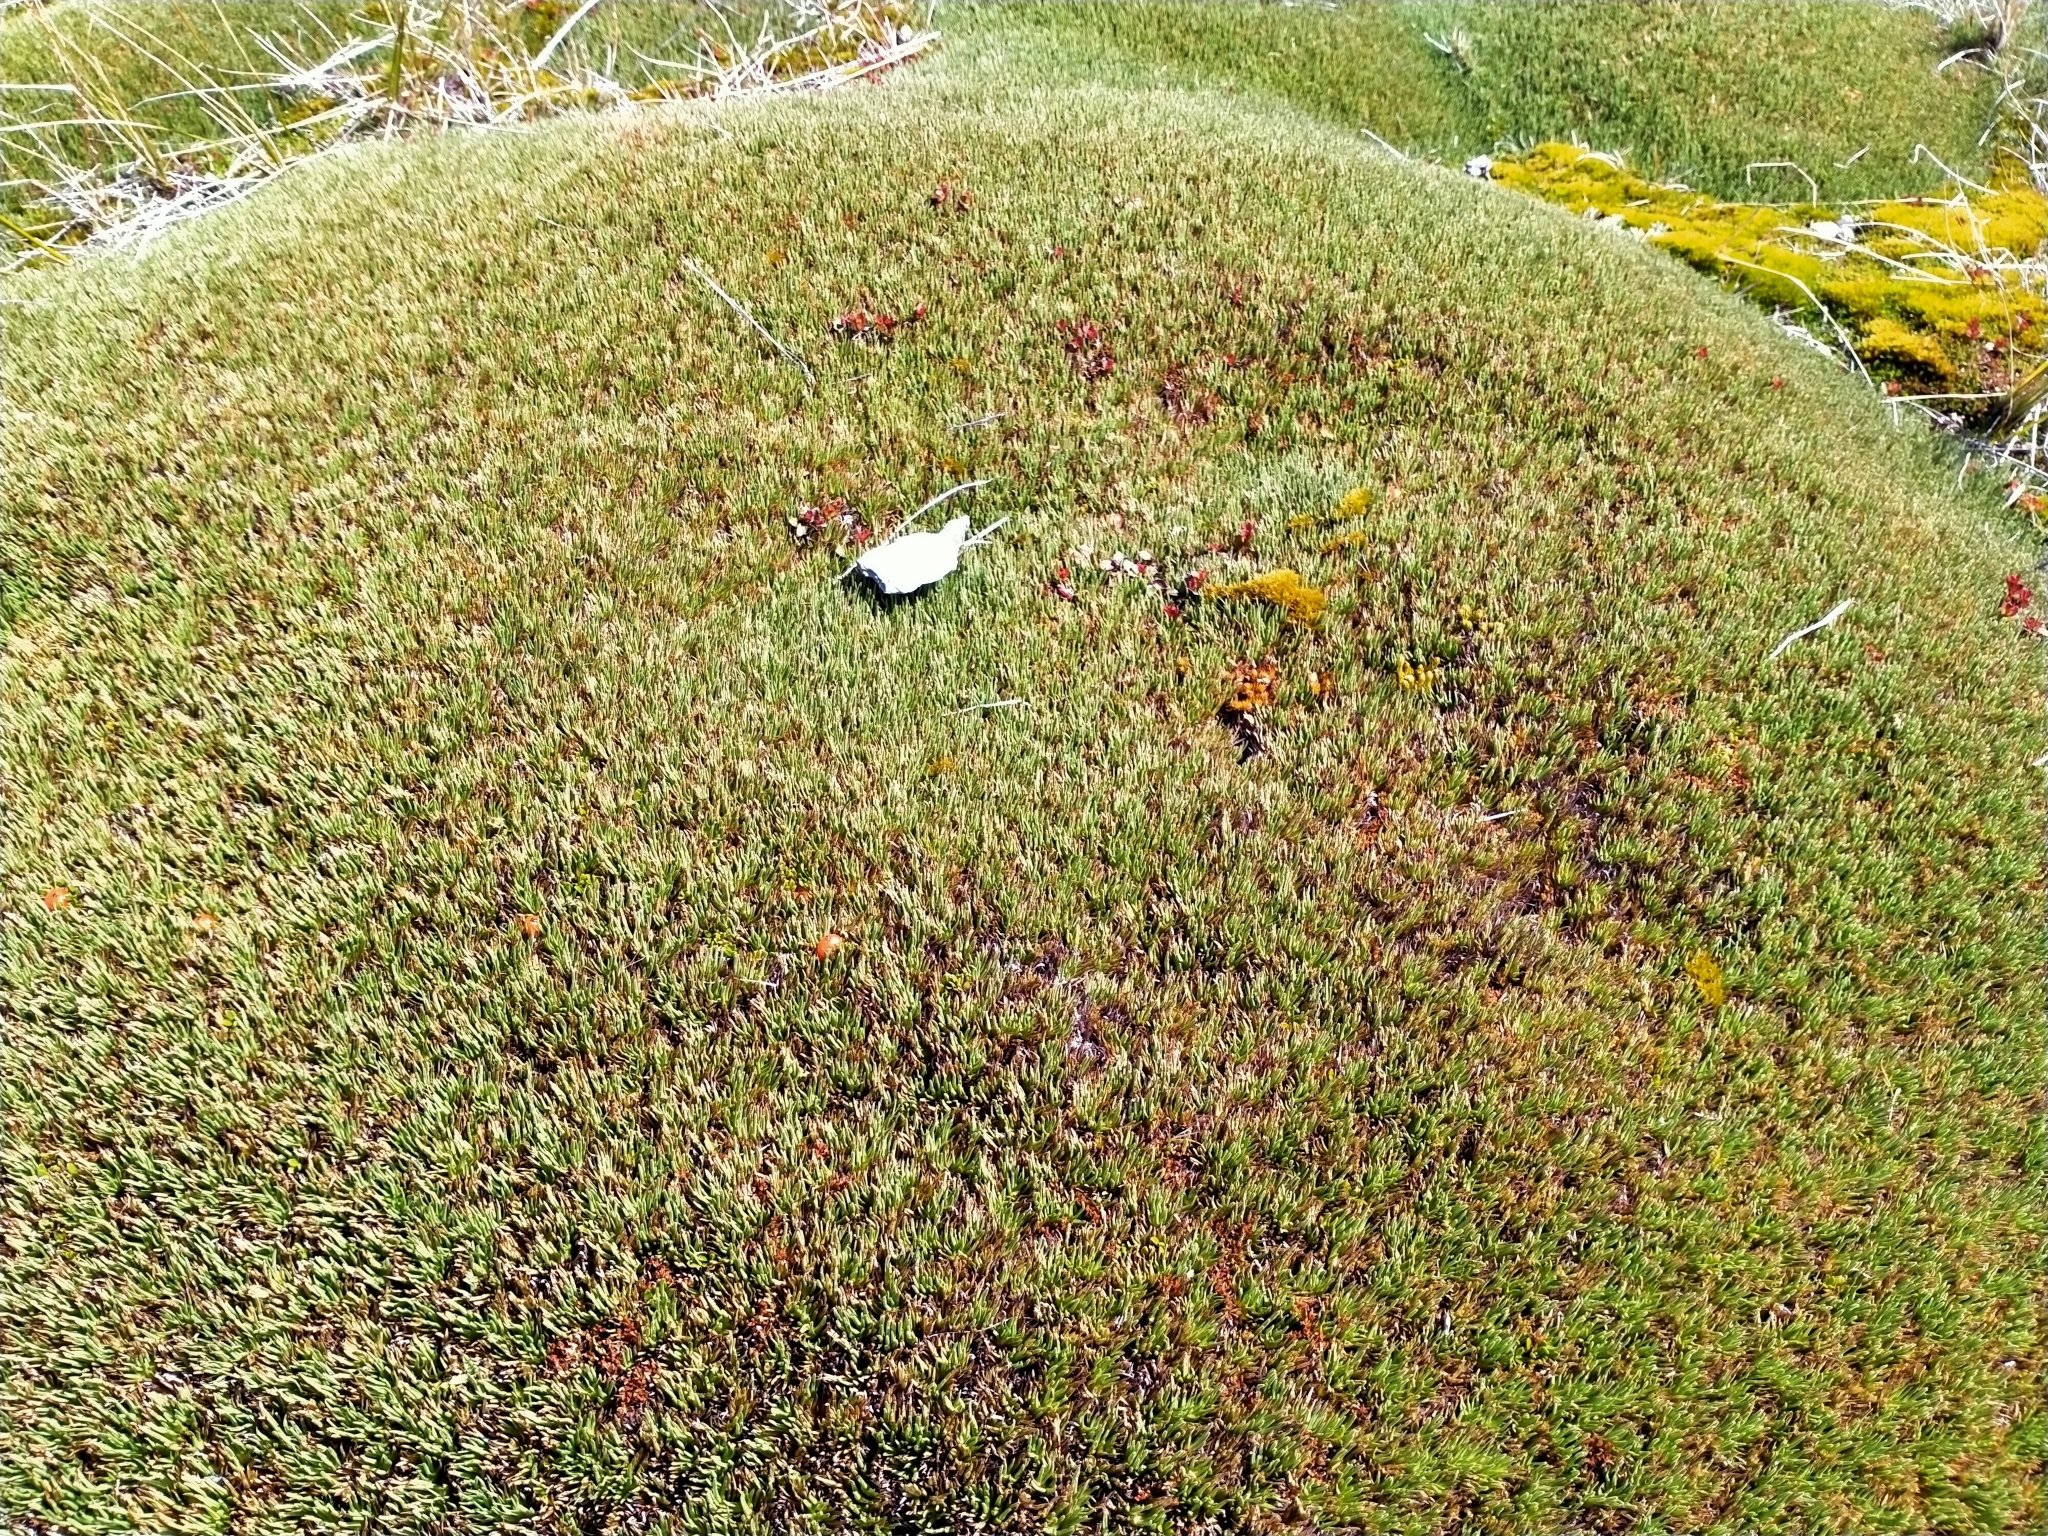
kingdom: Plantae
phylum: Tracheophyta
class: Liliopsida
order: Poales
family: Cyperaceae
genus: Oreobolus
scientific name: Oreobolus pectinatus
